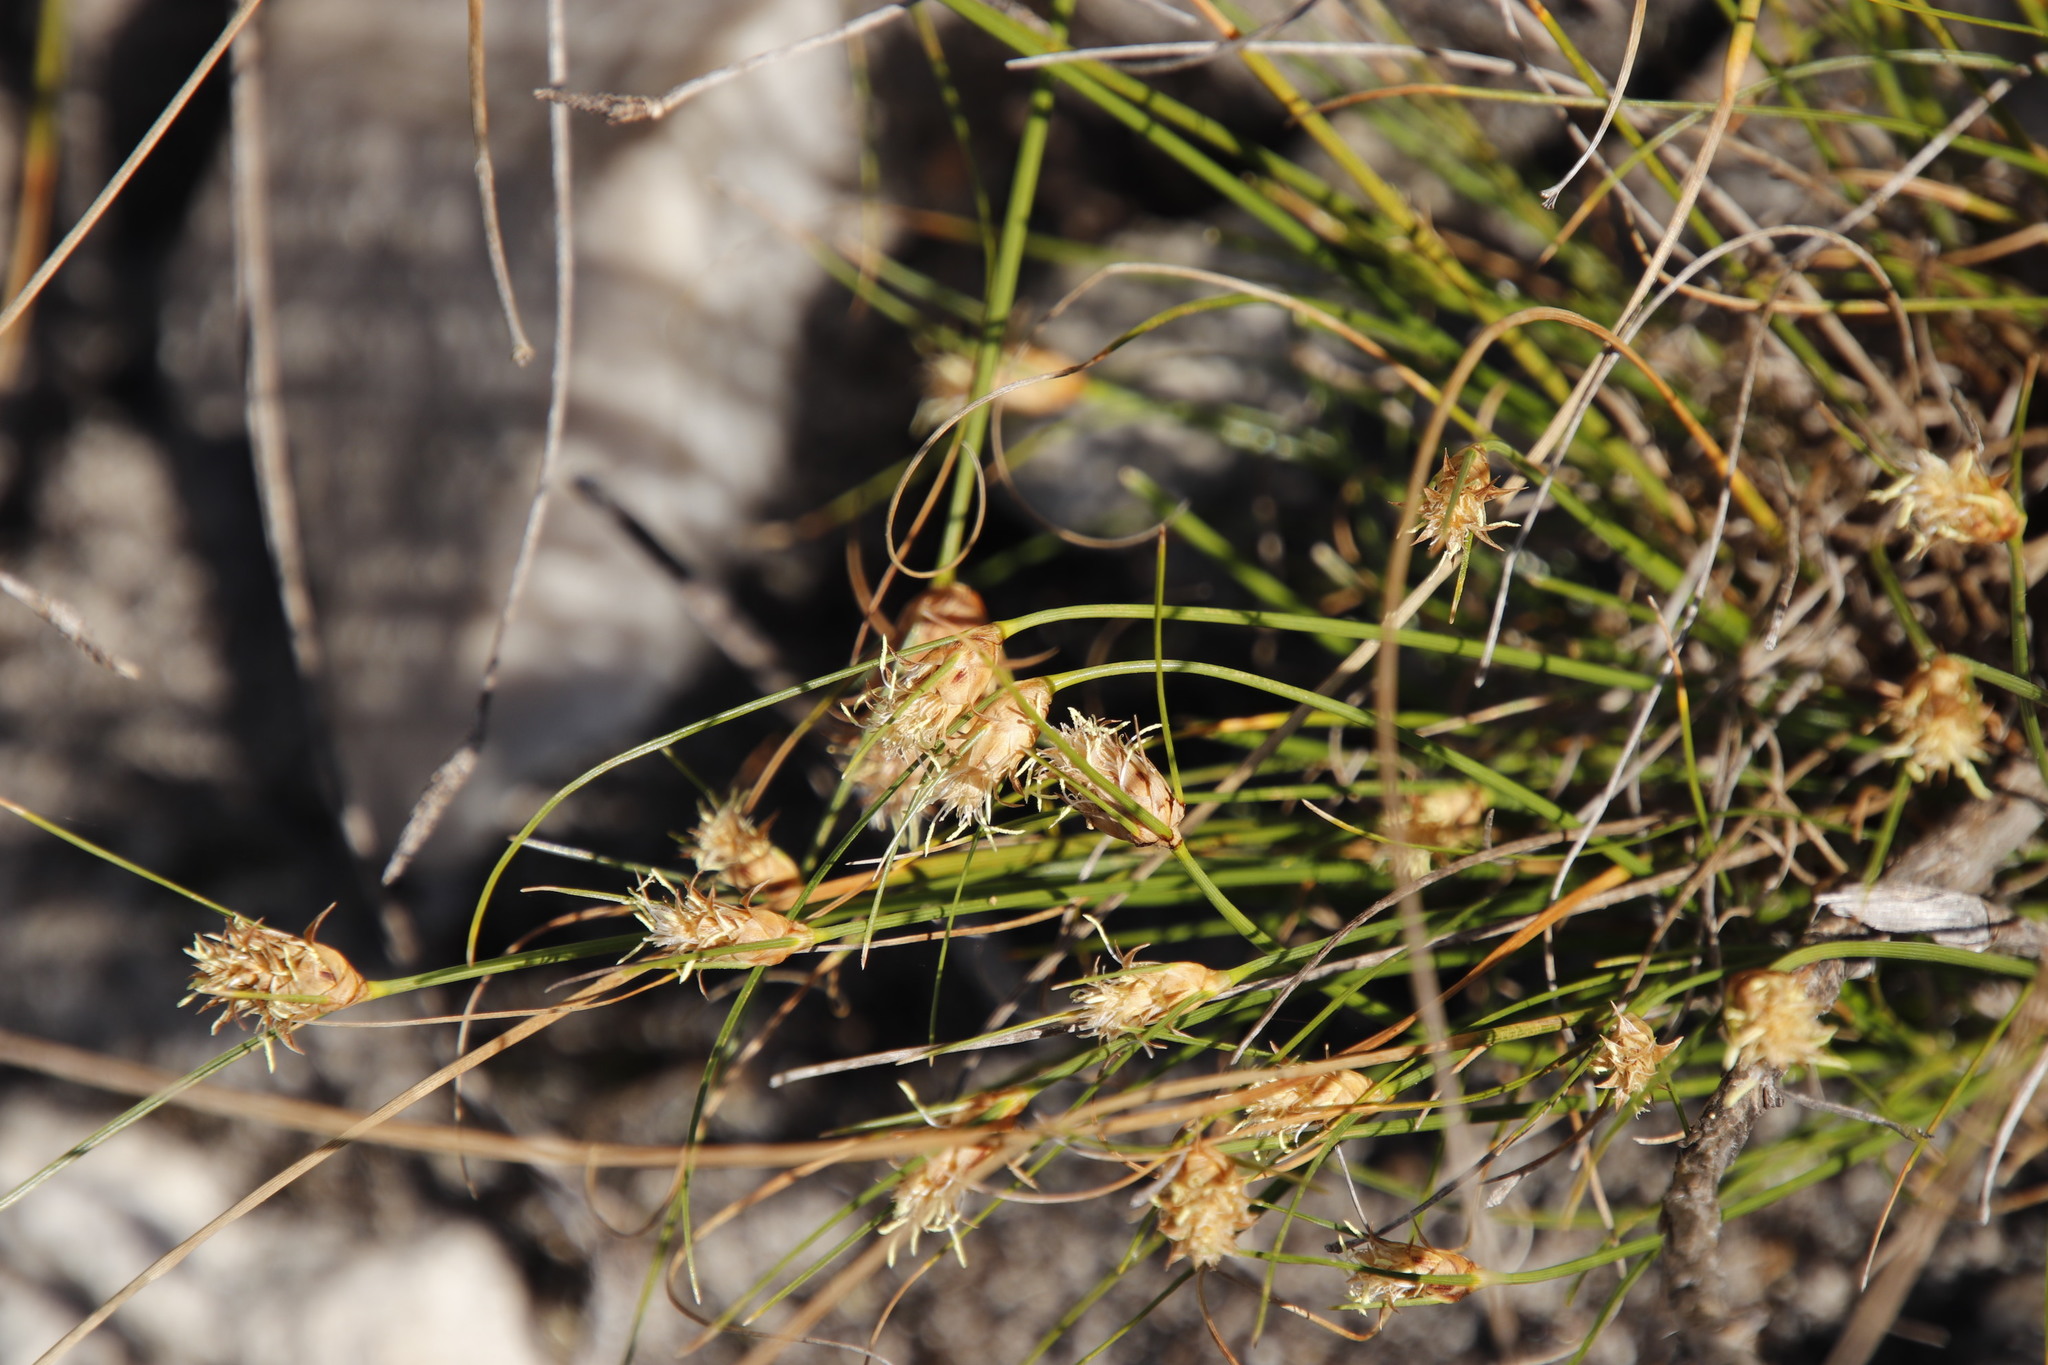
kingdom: Plantae
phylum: Tracheophyta
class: Liliopsida
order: Poales
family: Cyperaceae
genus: Ficinia
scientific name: Ficinia nigrescens
